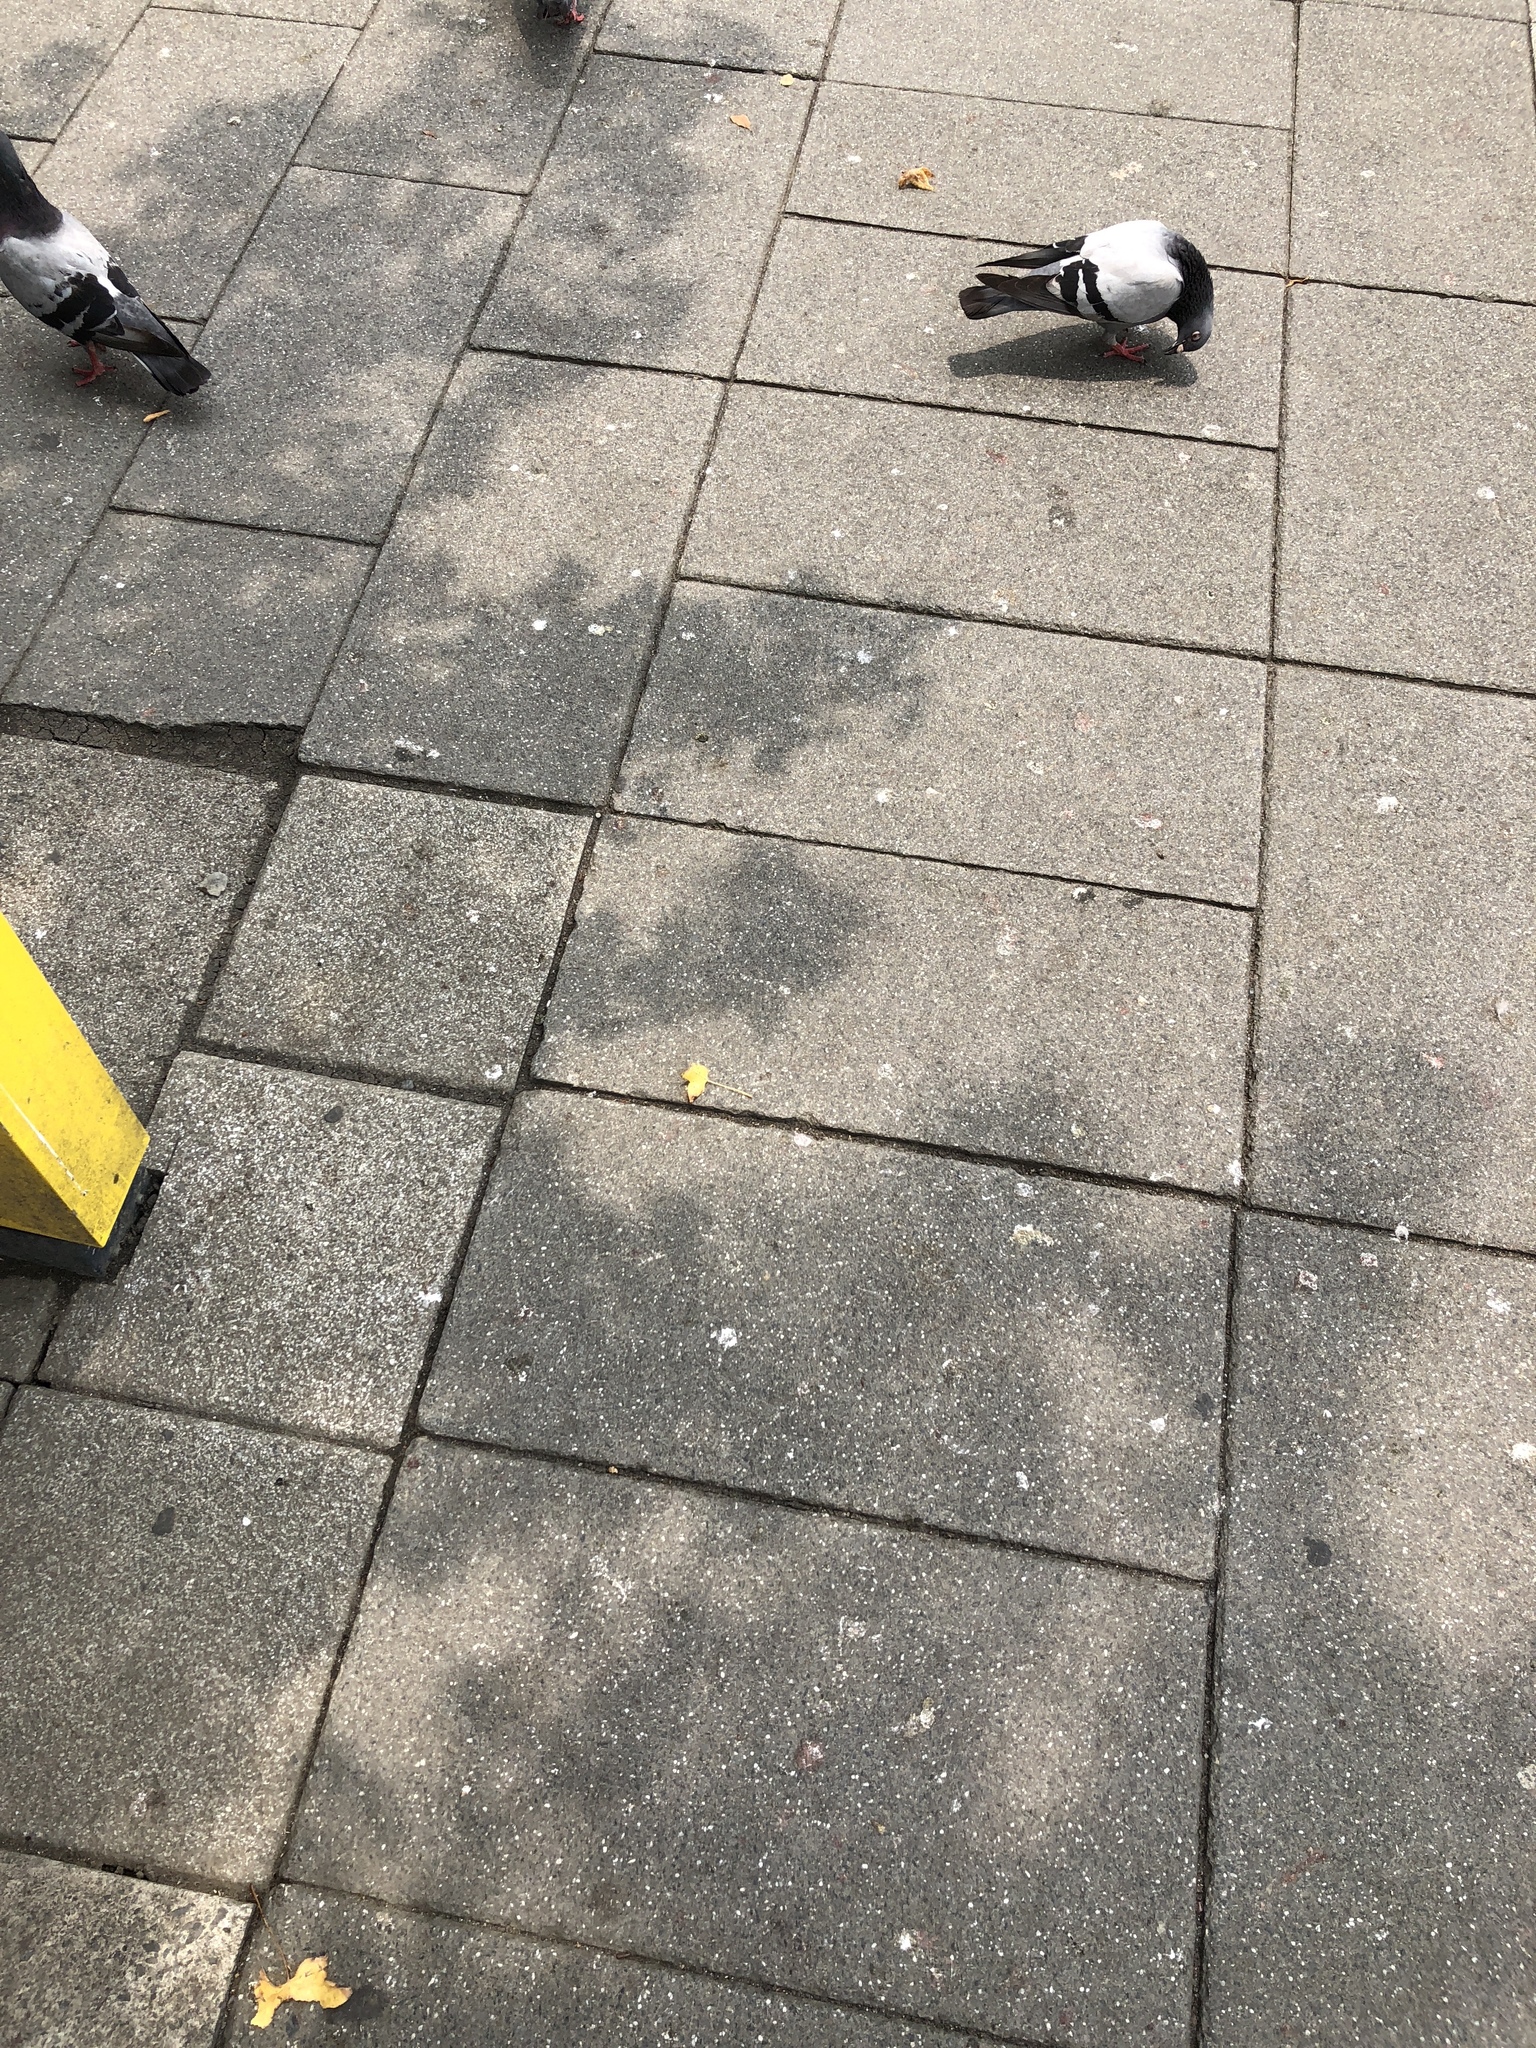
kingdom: Animalia
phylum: Chordata
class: Aves
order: Columbiformes
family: Columbidae
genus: Columba
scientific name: Columba livia
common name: Rock pigeon
